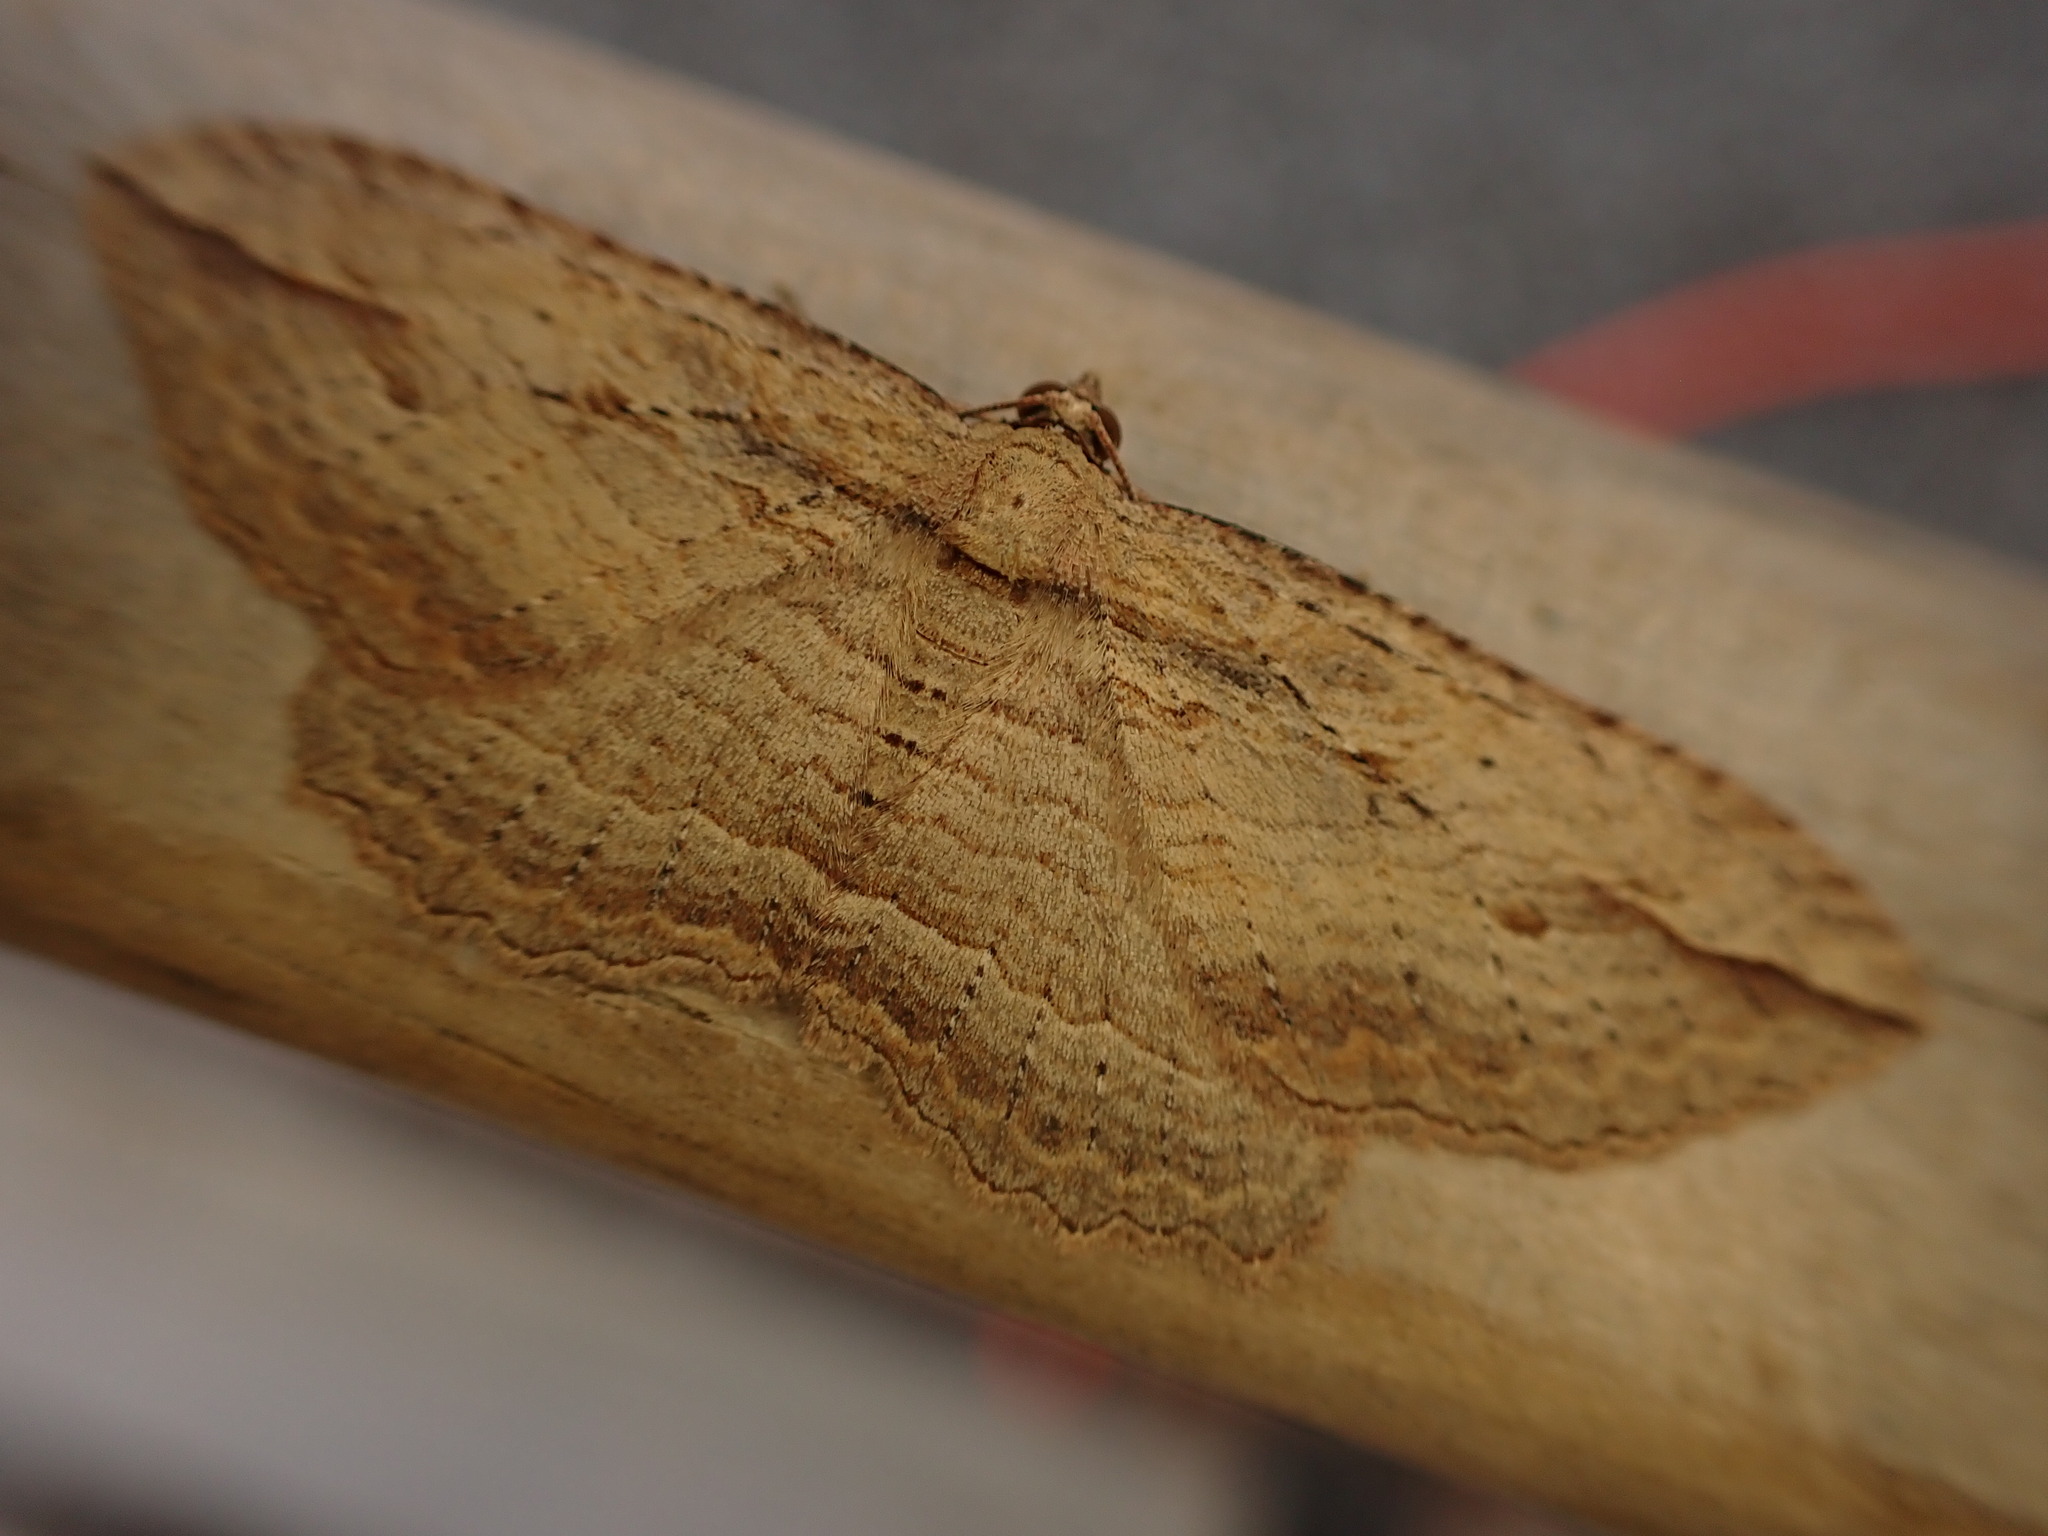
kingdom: Animalia
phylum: Arthropoda
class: Insecta
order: Lepidoptera
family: Geometridae
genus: Austrocidaria
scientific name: Austrocidaria gobiata
